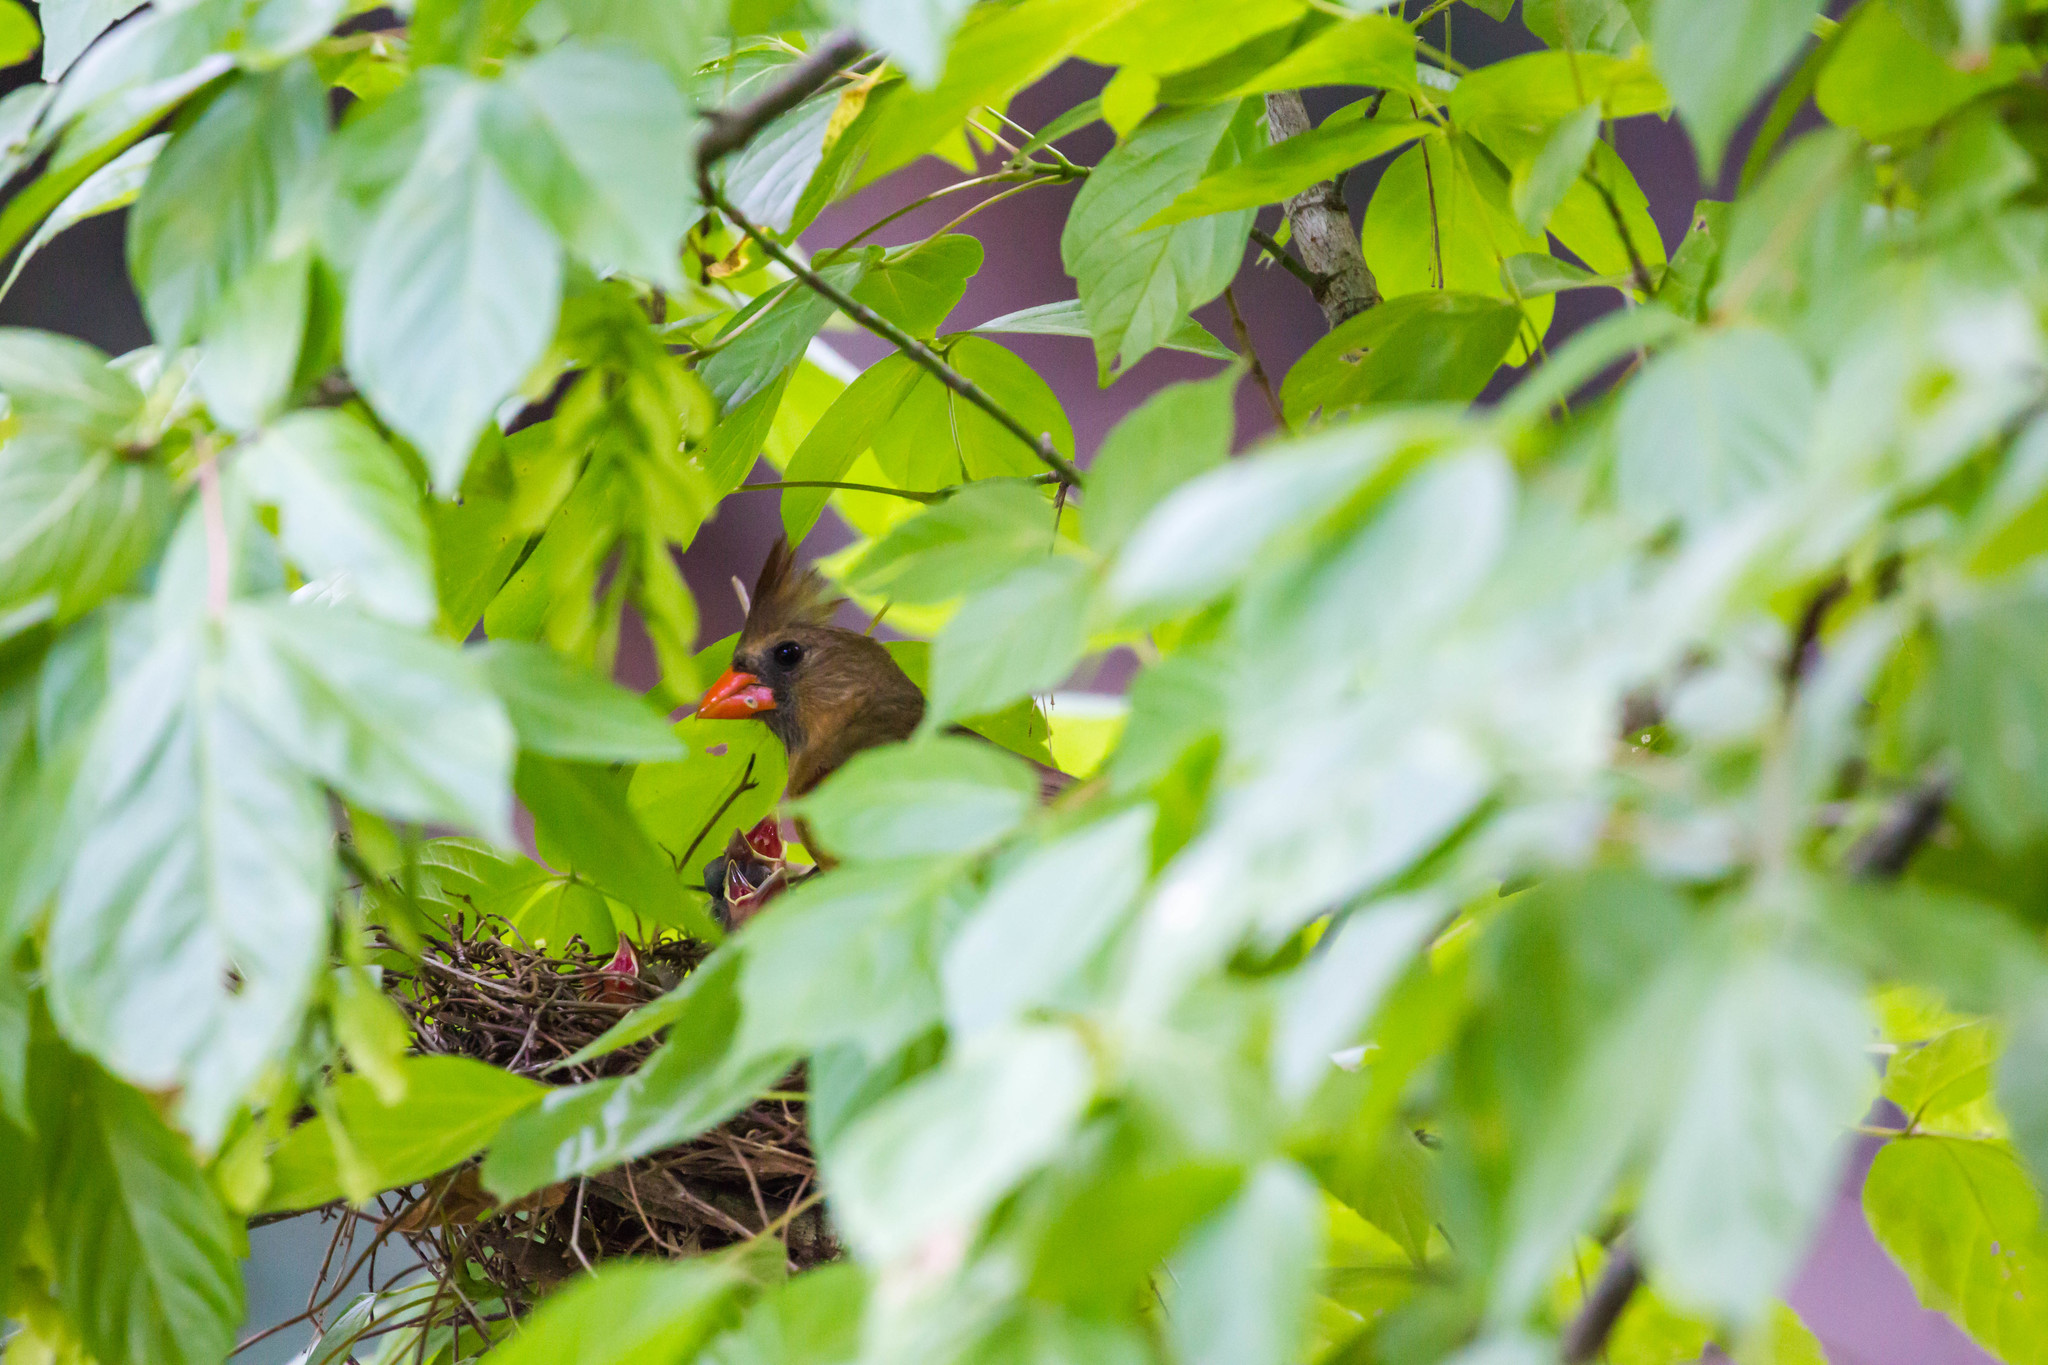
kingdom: Animalia
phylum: Chordata
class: Aves
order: Passeriformes
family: Cardinalidae
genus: Cardinalis
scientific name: Cardinalis cardinalis
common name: Northern cardinal
